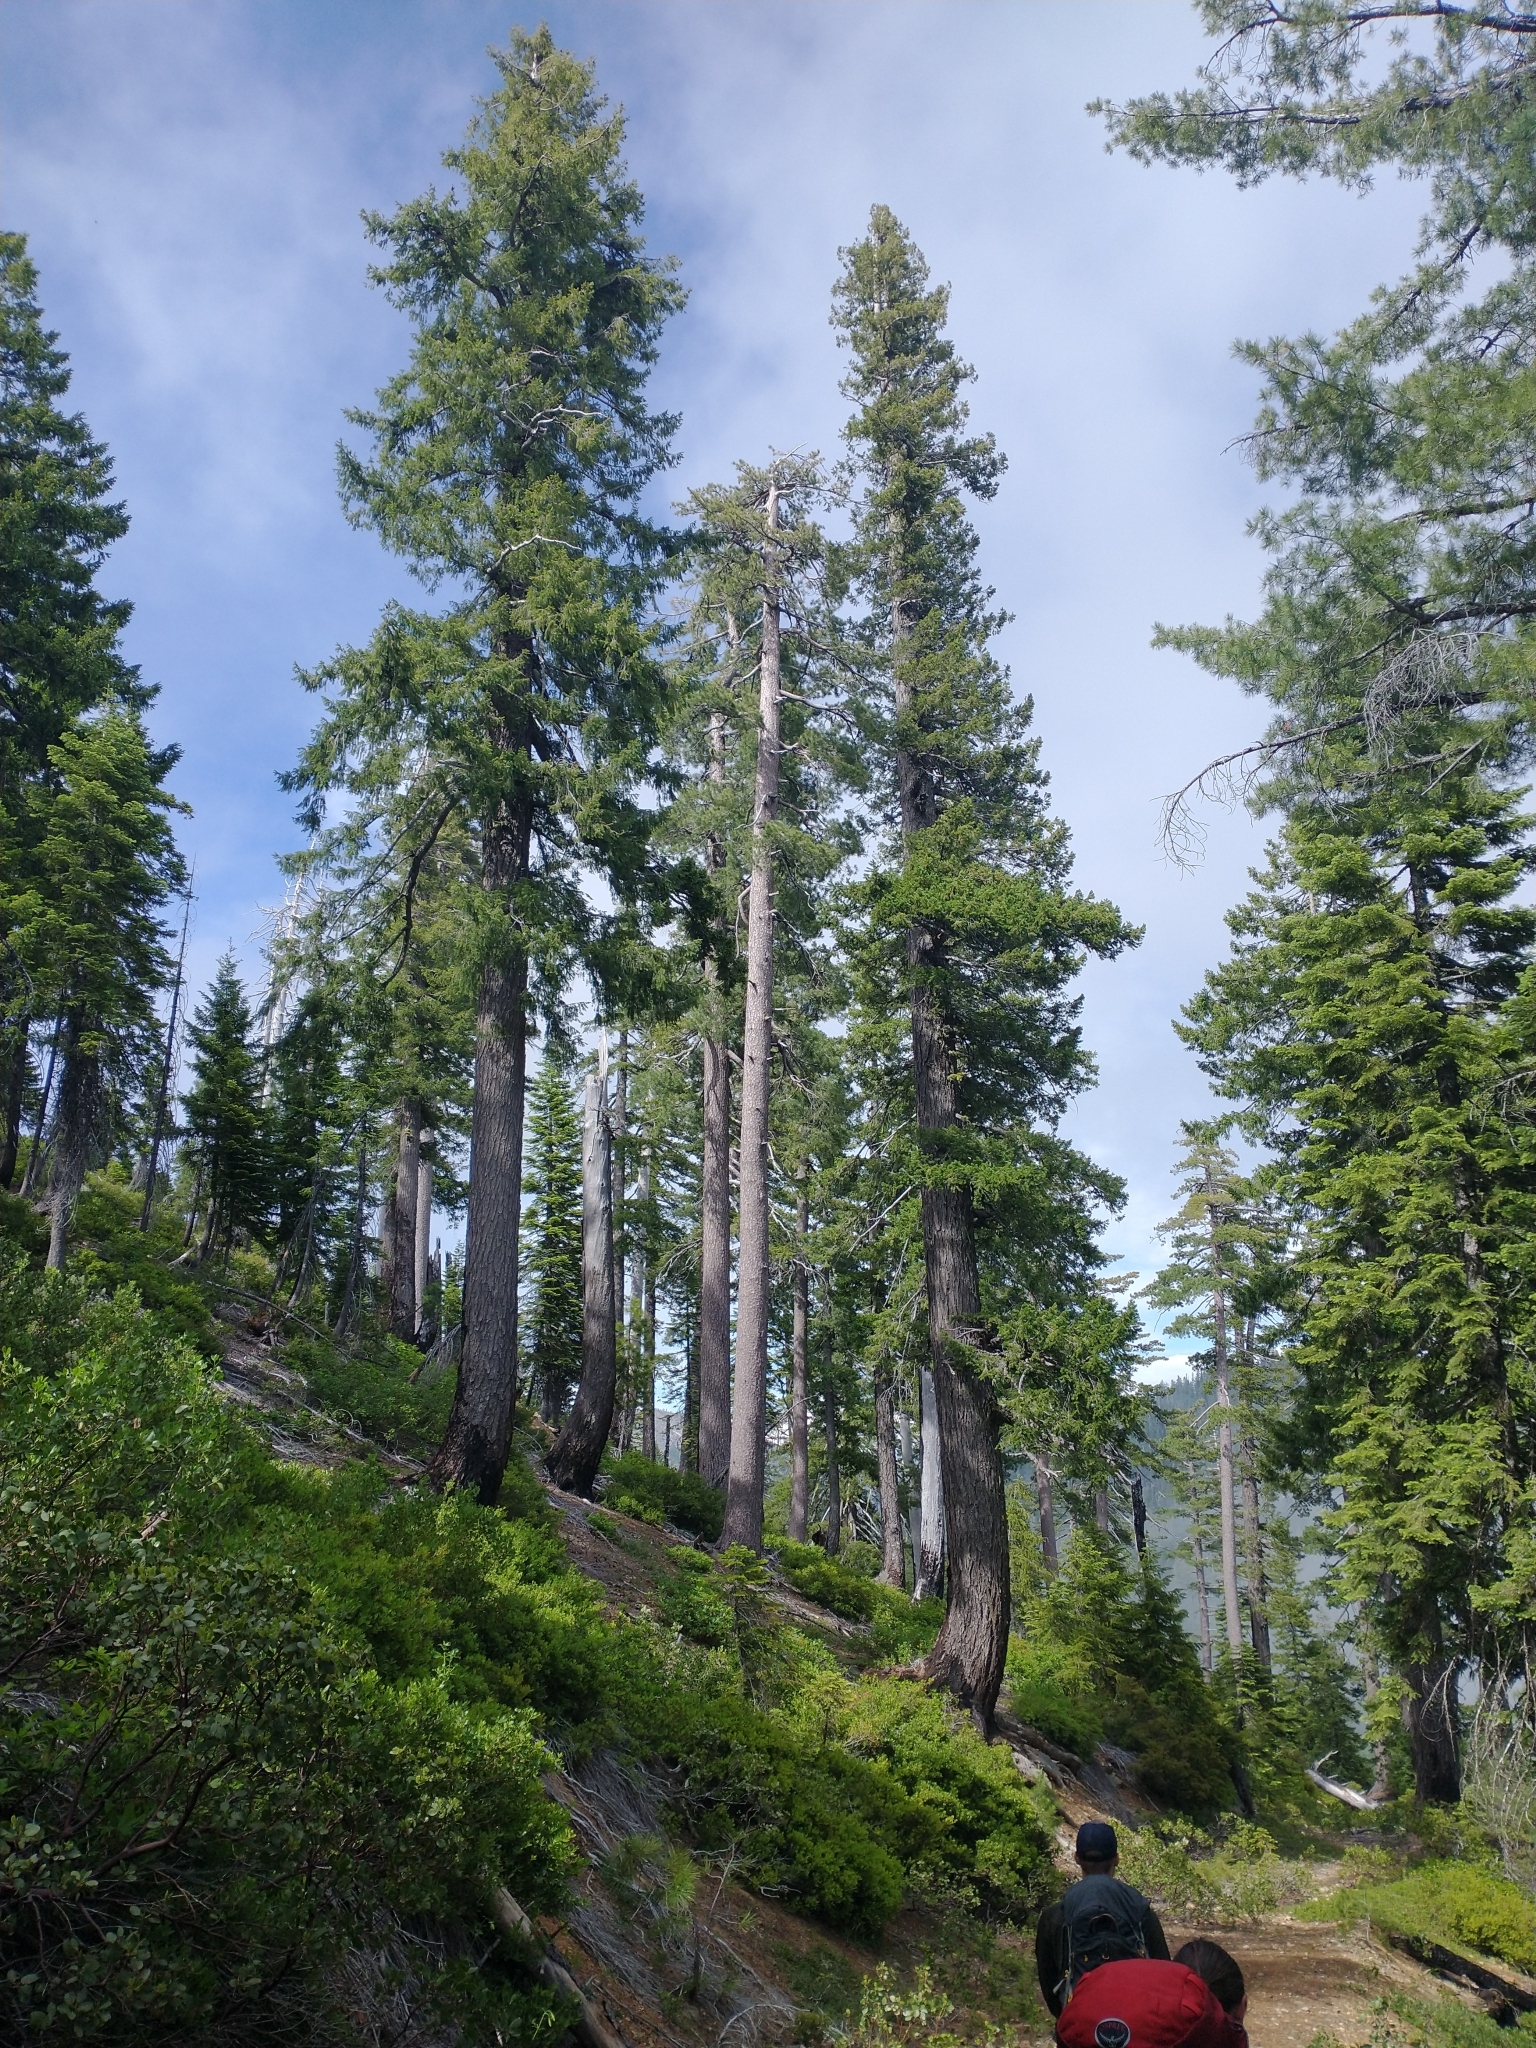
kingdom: Plantae
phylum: Tracheophyta
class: Pinopsida
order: Pinales
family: Pinaceae
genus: Pseudotsuga
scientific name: Pseudotsuga menziesii
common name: Douglas fir
